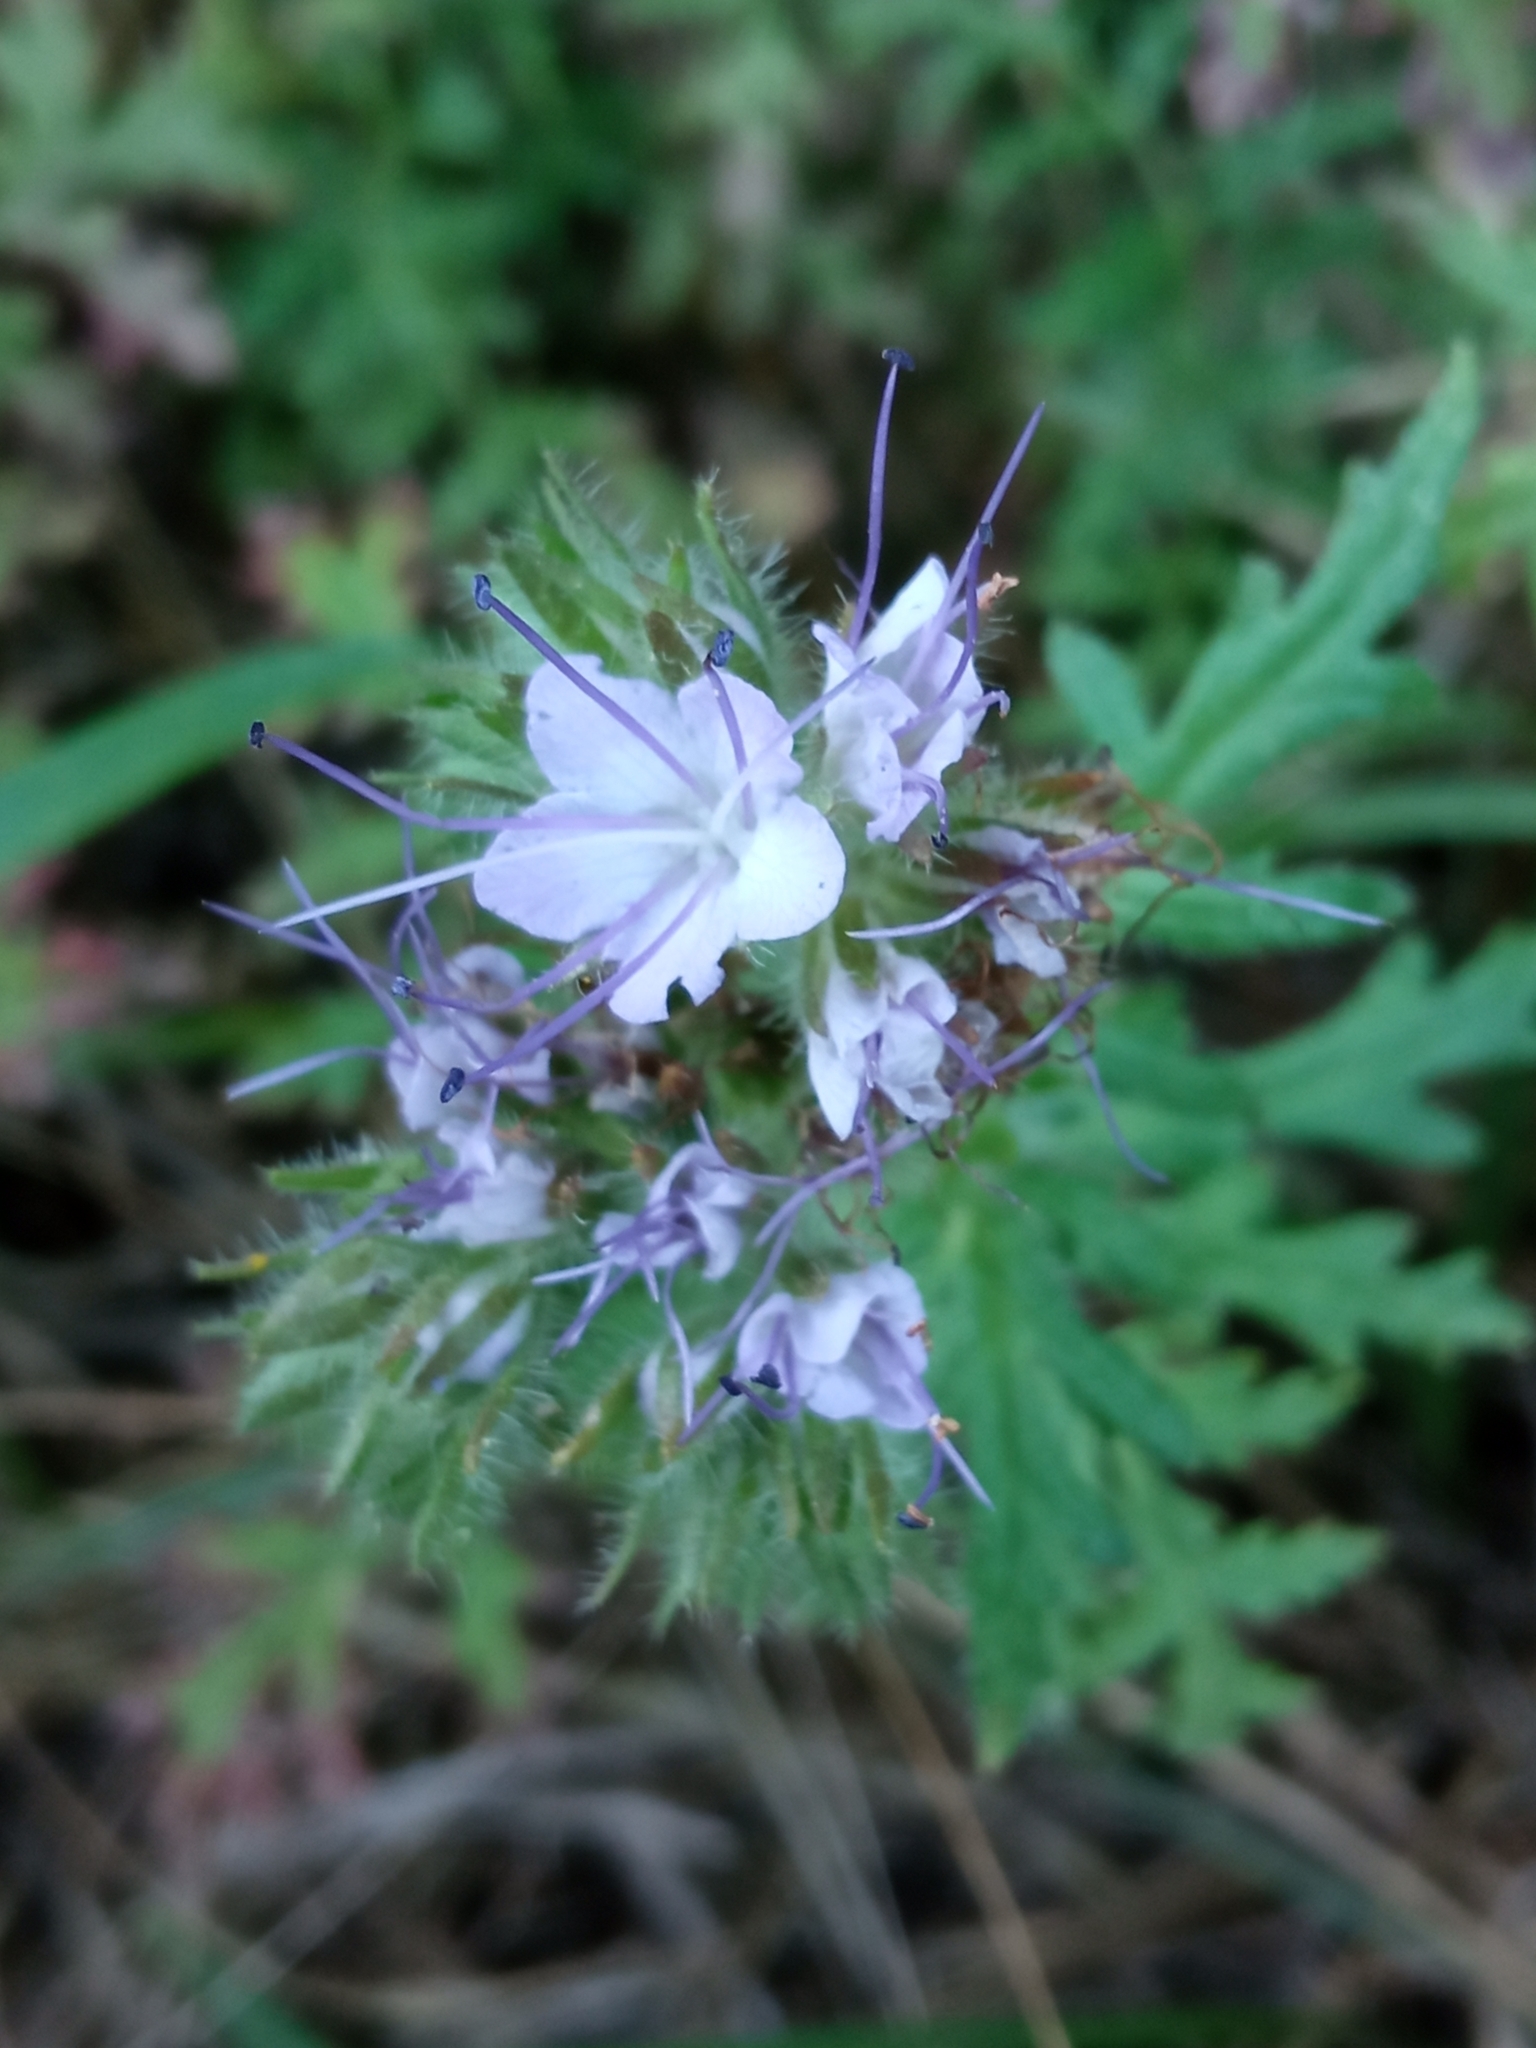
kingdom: Plantae
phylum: Tracheophyta
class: Magnoliopsida
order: Boraginales
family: Hydrophyllaceae
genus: Phacelia
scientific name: Phacelia tanacetifolia
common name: Phacelia
